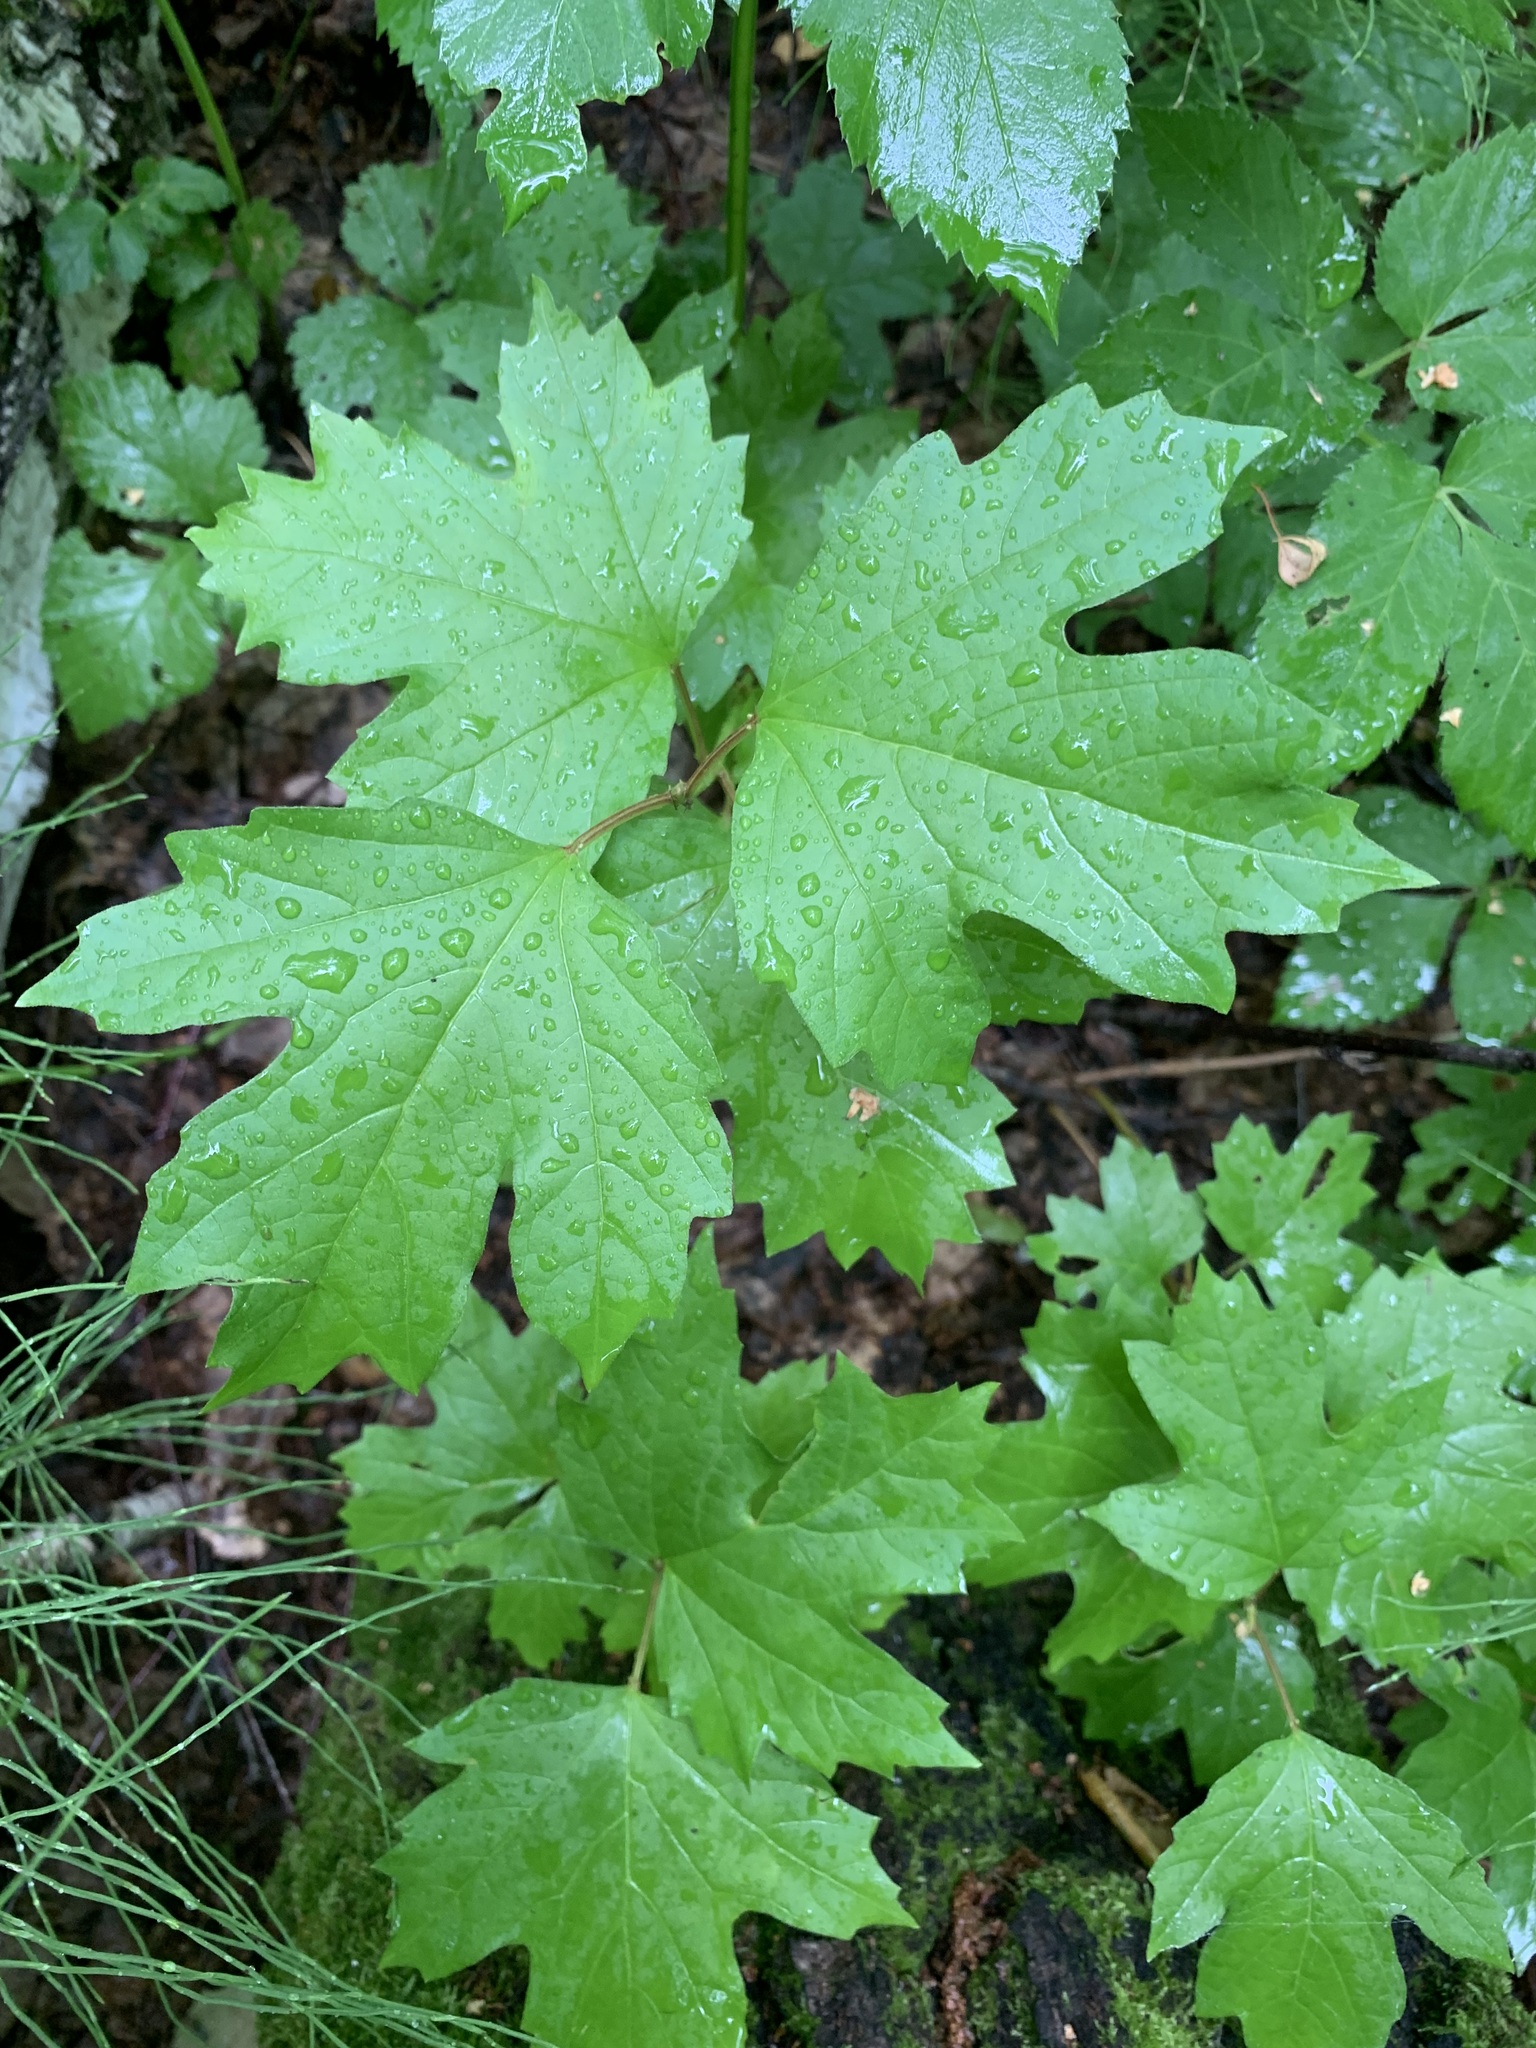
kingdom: Plantae
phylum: Tracheophyta
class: Magnoliopsida
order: Dipsacales
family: Viburnaceae
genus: Viburnum
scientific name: Viburnum opulus
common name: Guelder-rose
